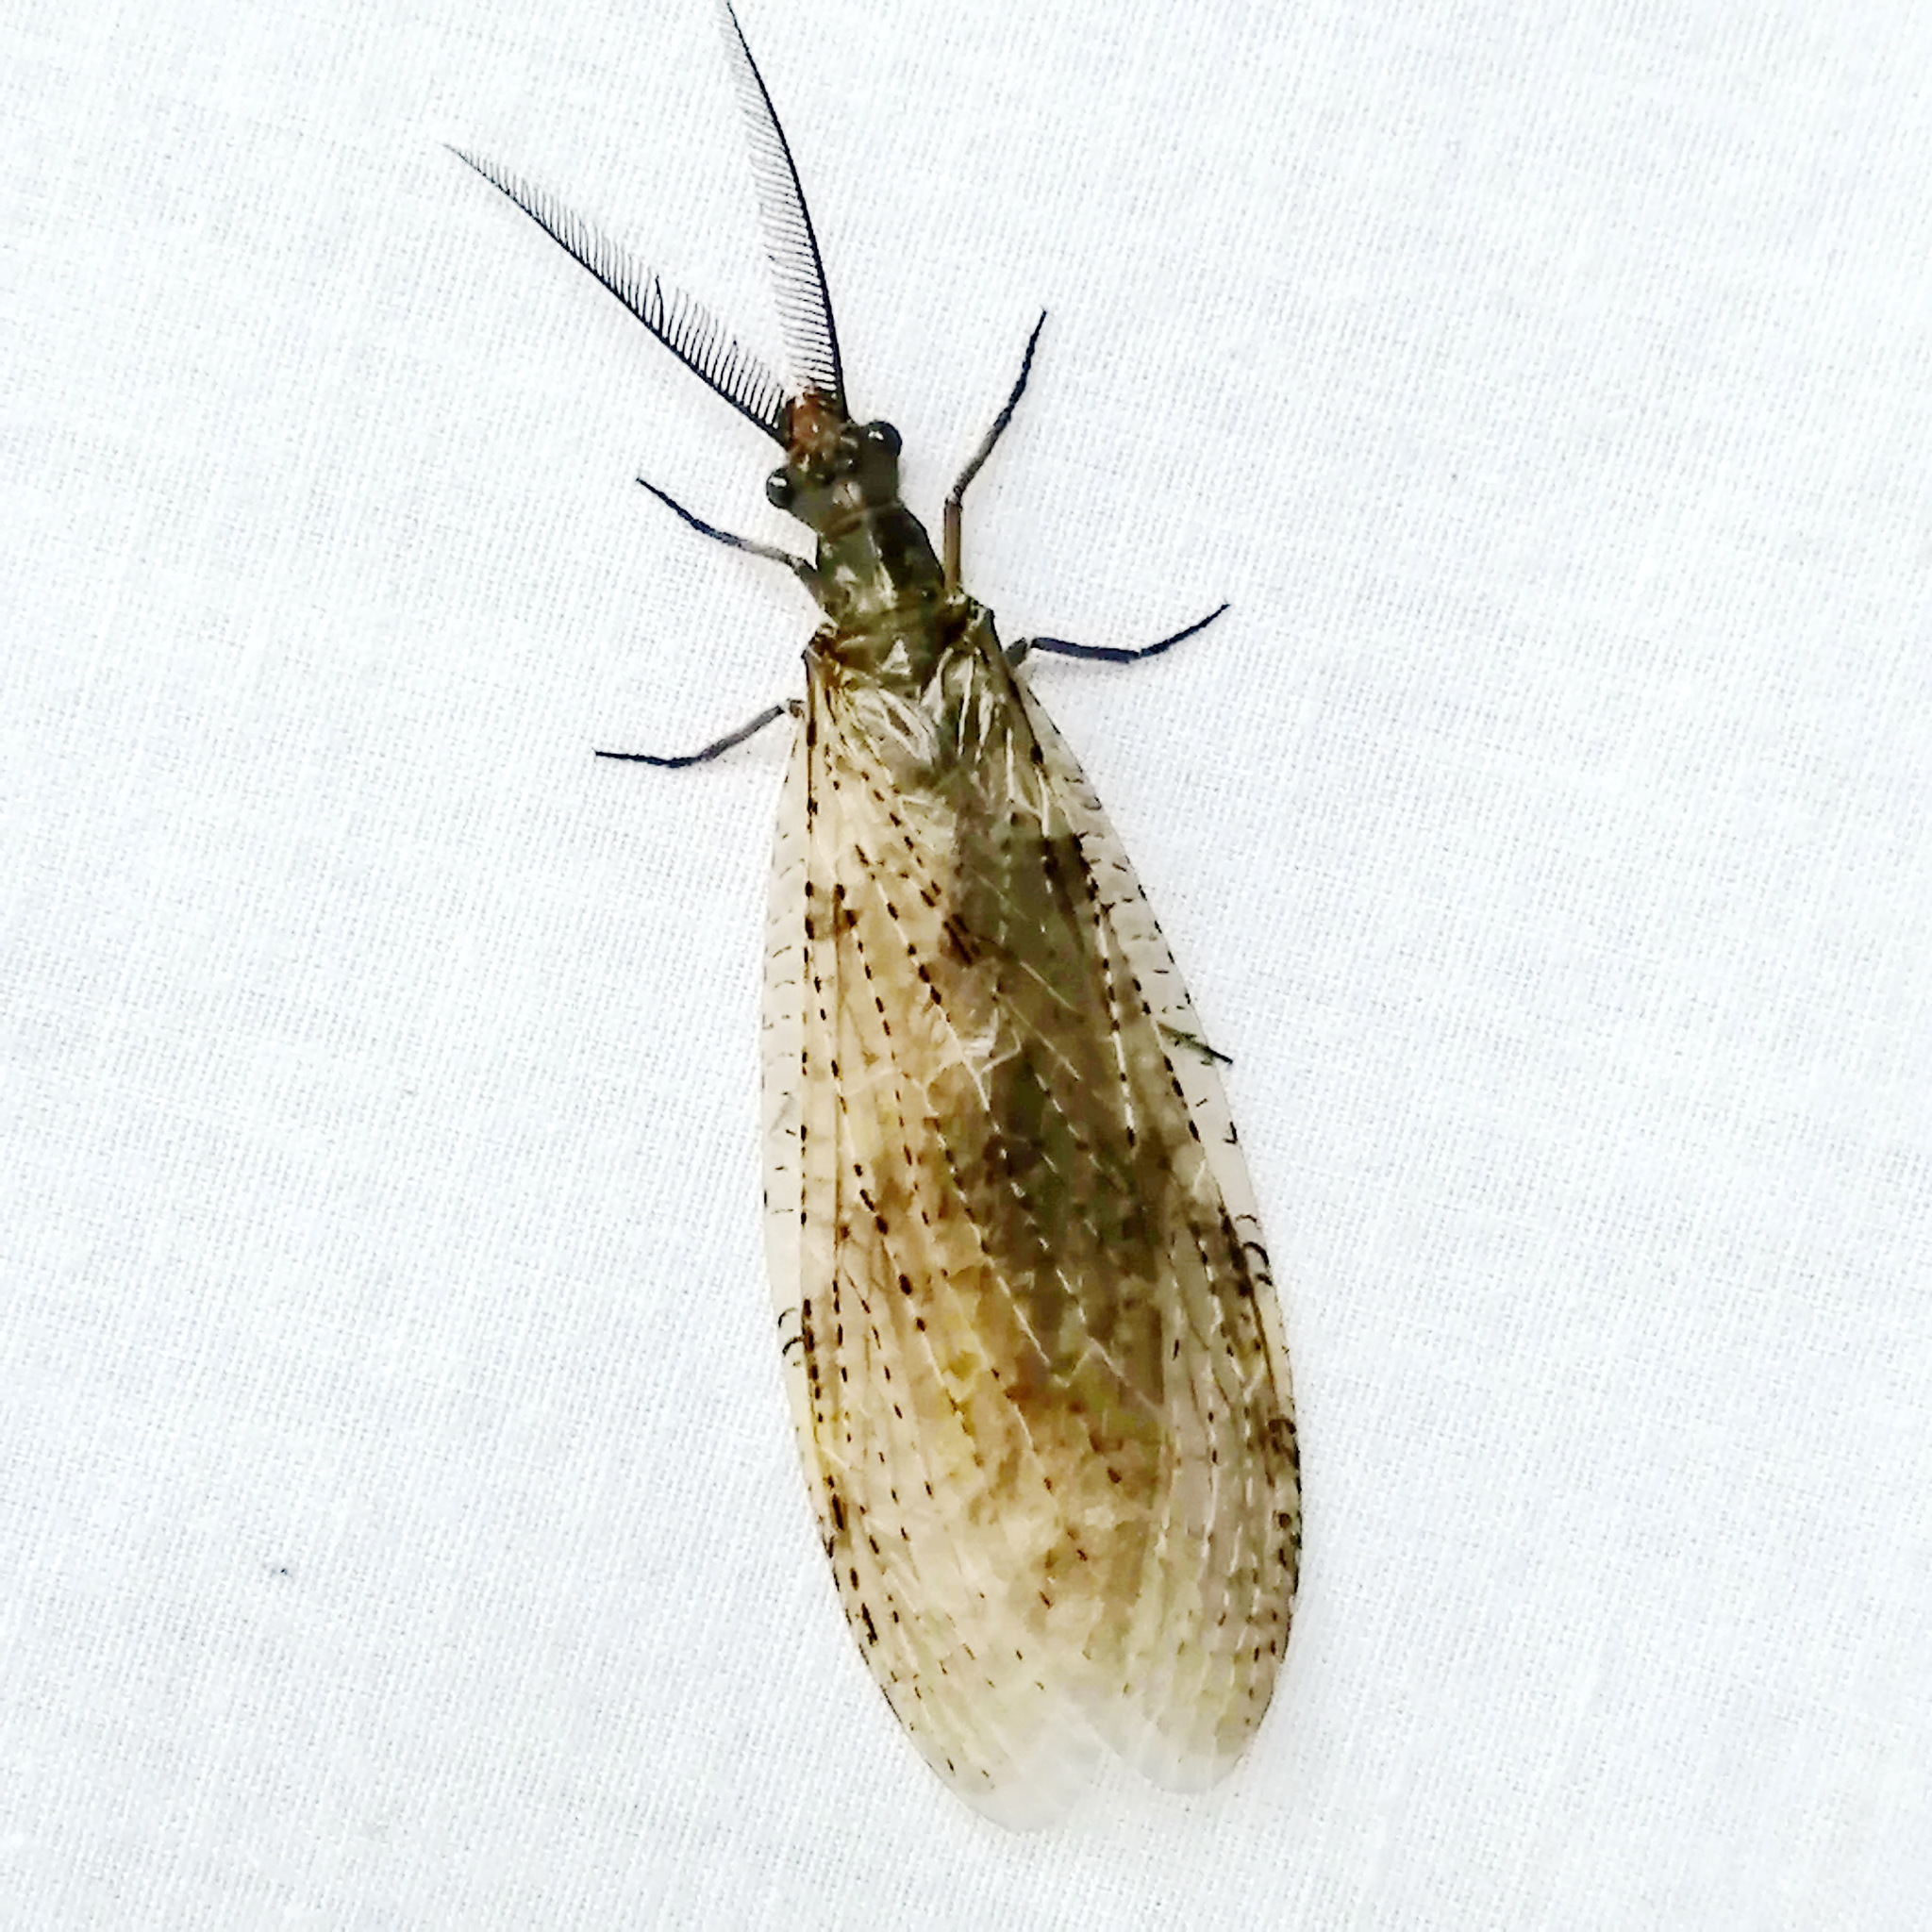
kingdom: Animalia
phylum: Arthropoda
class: Insecta
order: Megaloptera
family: Corydalidae
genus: Chauliodes
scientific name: Chauliodes pectinicornis
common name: Summer fishfly
